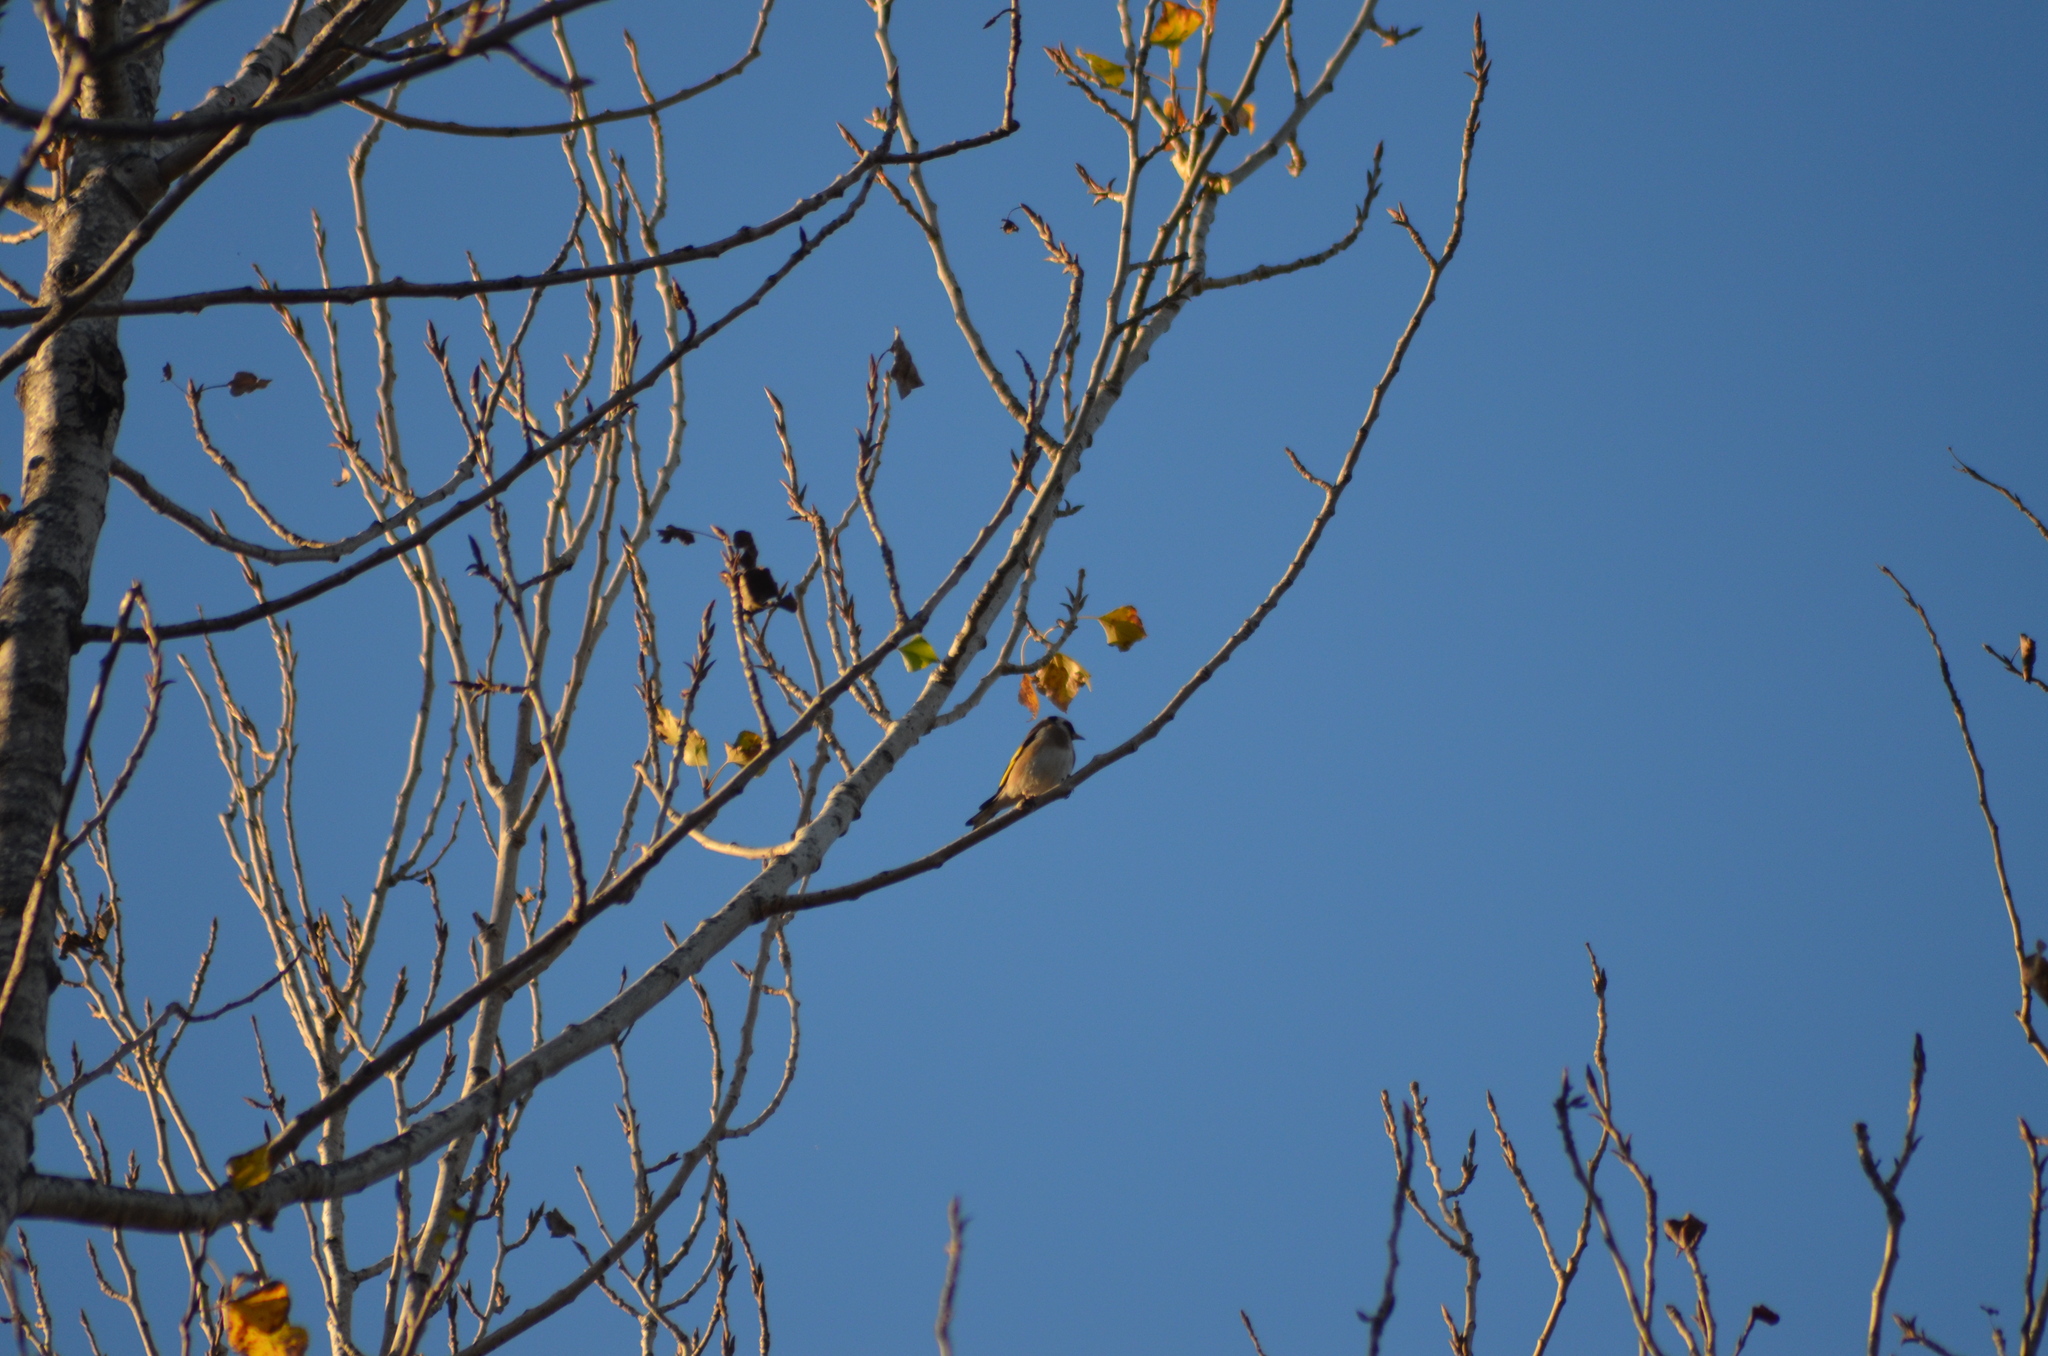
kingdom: Animalia
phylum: Chordata
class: Aves
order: Passeriformes
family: Fringillidae
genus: Carduelis
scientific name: Carduelis carduelis
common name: European goldfinch
